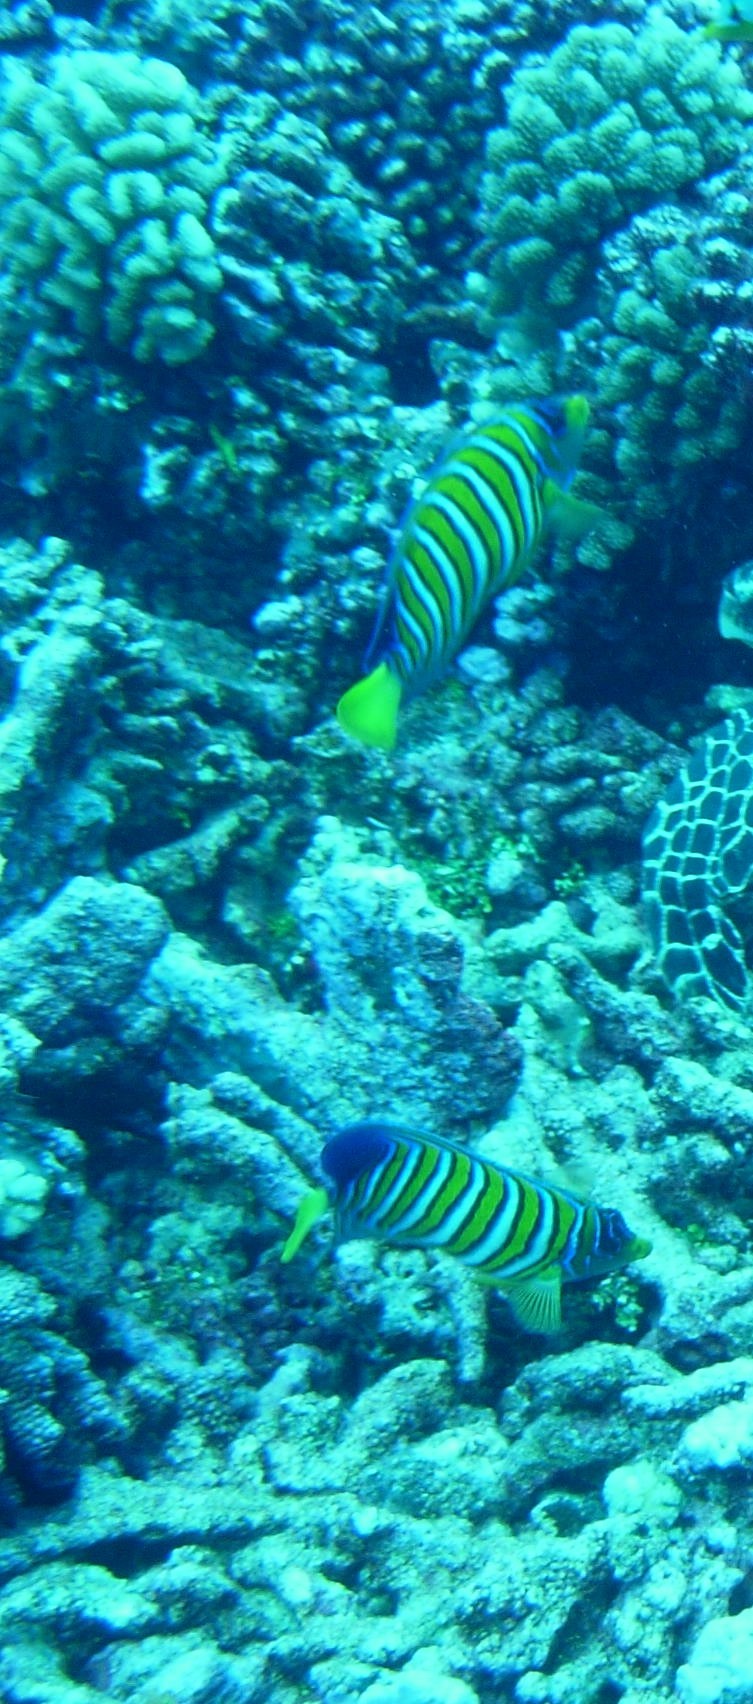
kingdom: Animalia
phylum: Chordata
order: Perciformes
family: Pomacanthidae
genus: Pygoplites
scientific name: Pygoplites diacanthus
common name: Regal angelfish
